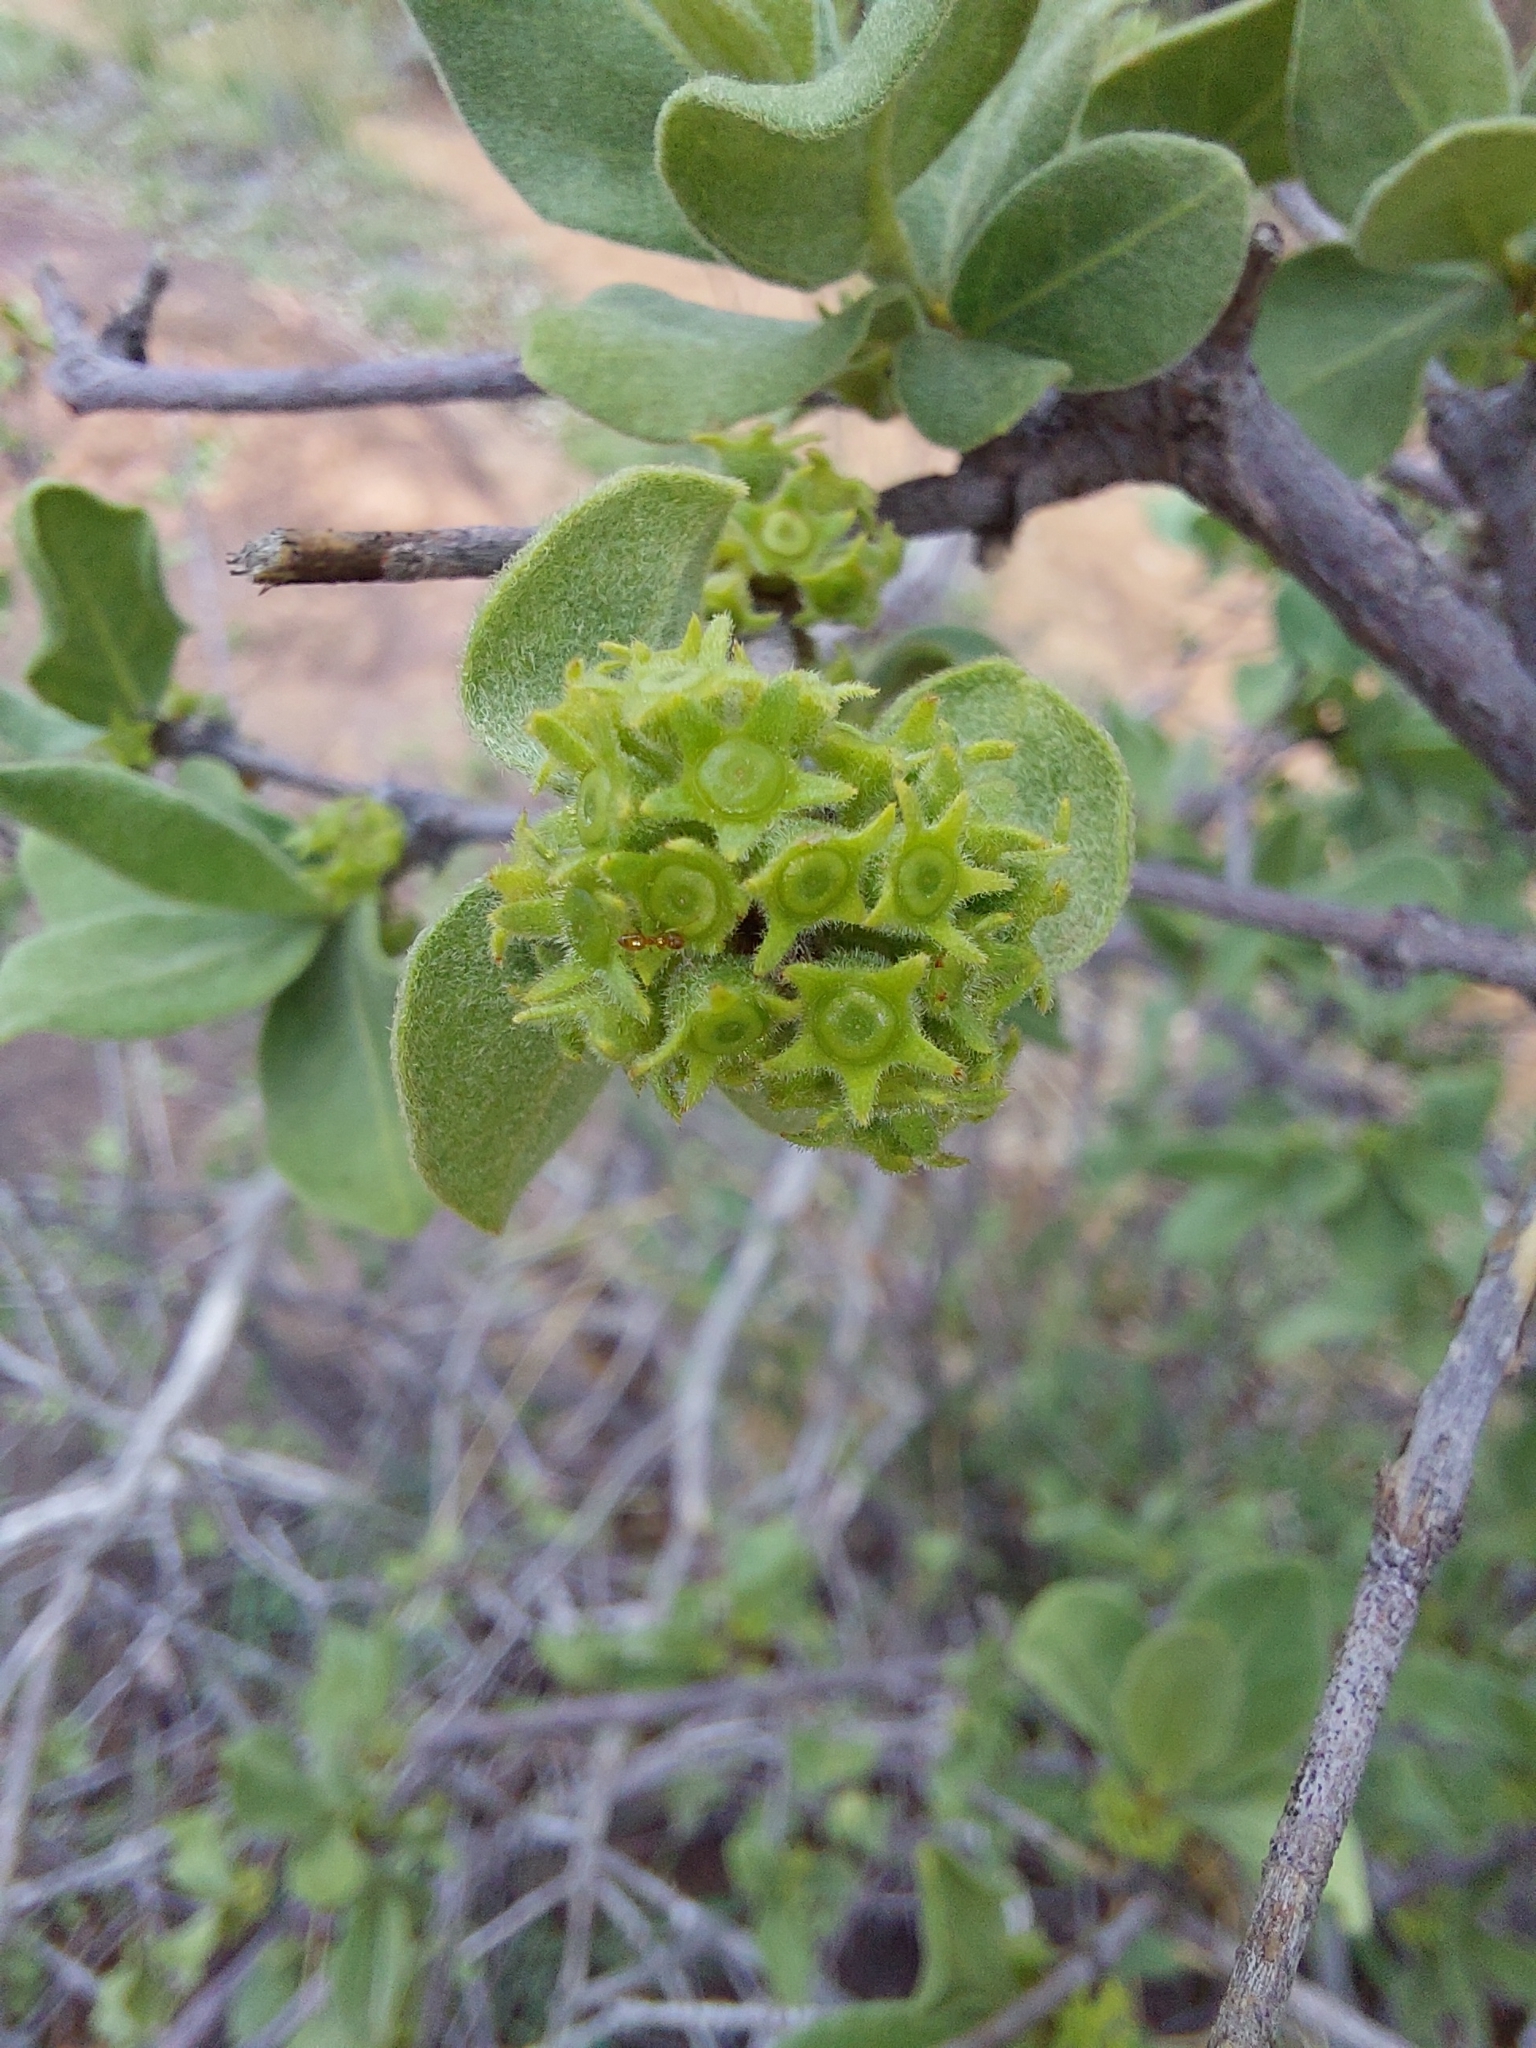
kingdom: Plantae
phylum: Tracheophyta
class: Magnoliopsida
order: Gentianales
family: Rubiaceae
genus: Vangueria
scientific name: Vangueria parvifolia
